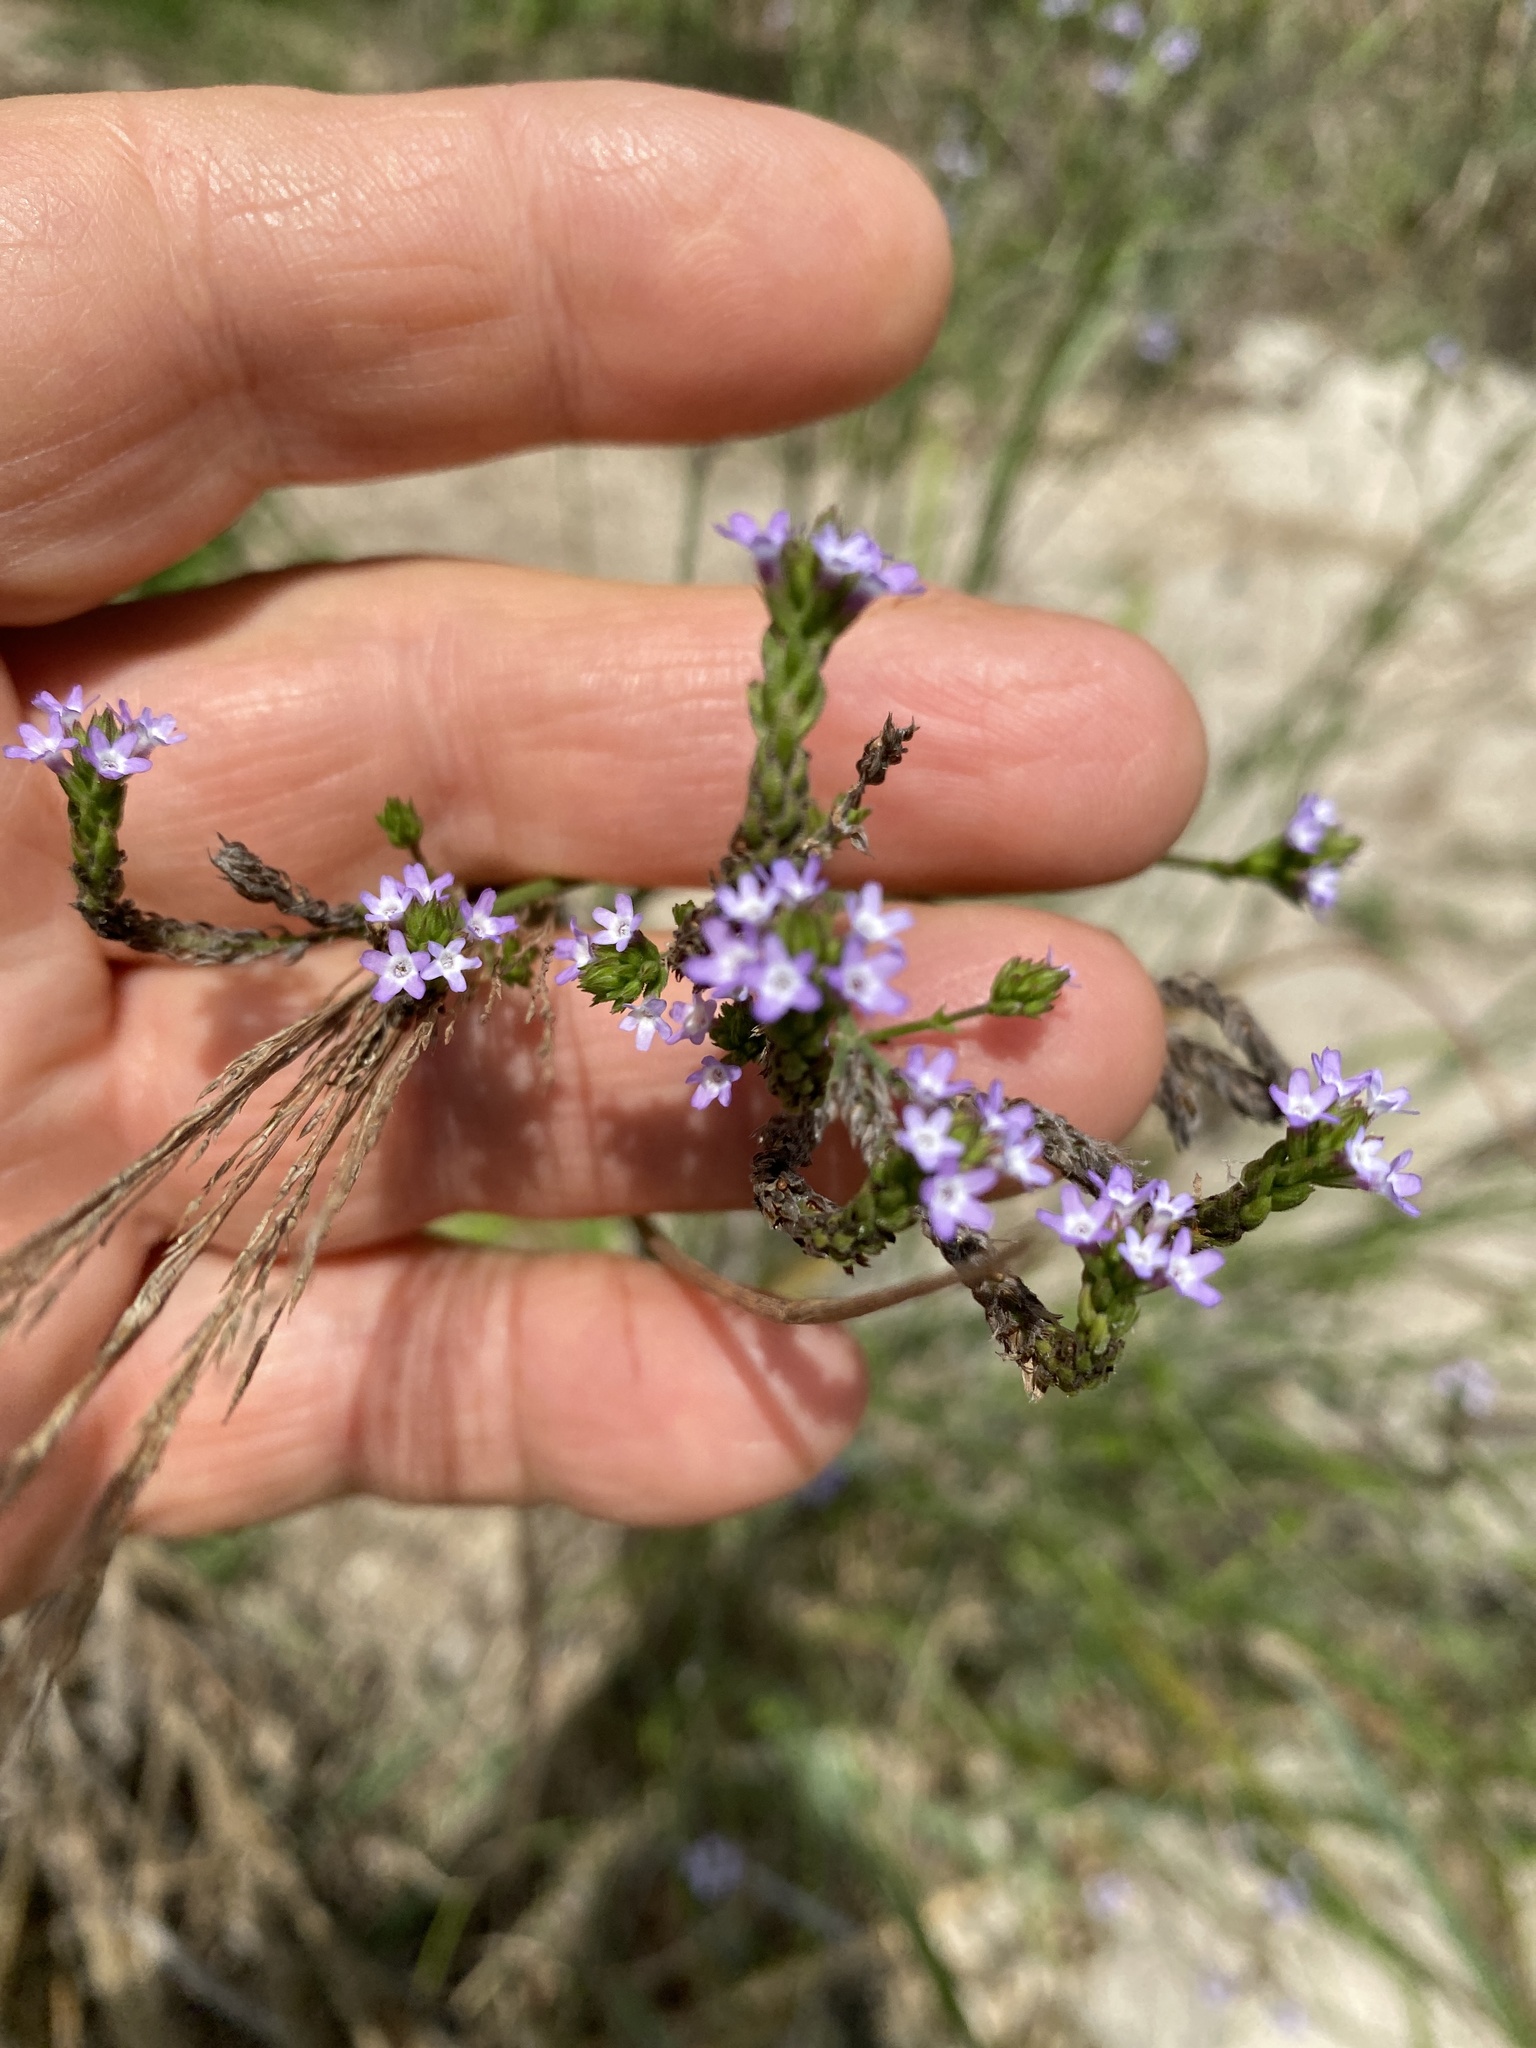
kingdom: Plantae
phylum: Tracheophyta
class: Magnoliopsida
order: Lamiales
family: Verbenaceae
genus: Verbena
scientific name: Verbena brasiliensis
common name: Brazilian vervain
